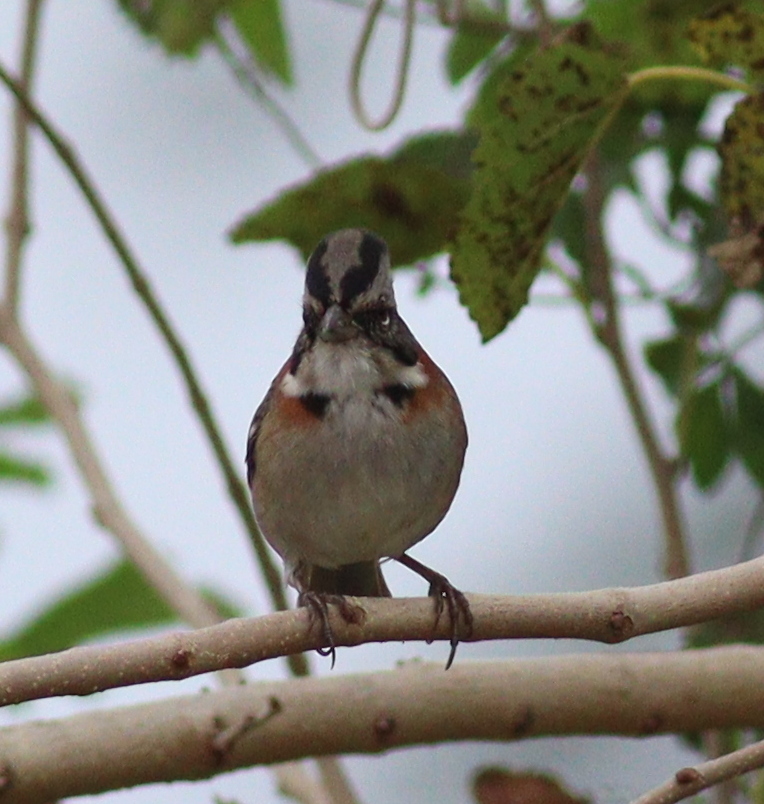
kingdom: Animalia
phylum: Chordata
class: Aves
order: Passeriformes
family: Passerellidae
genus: Zonotrichia
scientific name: Zonotrichia capensis
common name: Rufous-collared sparrow
